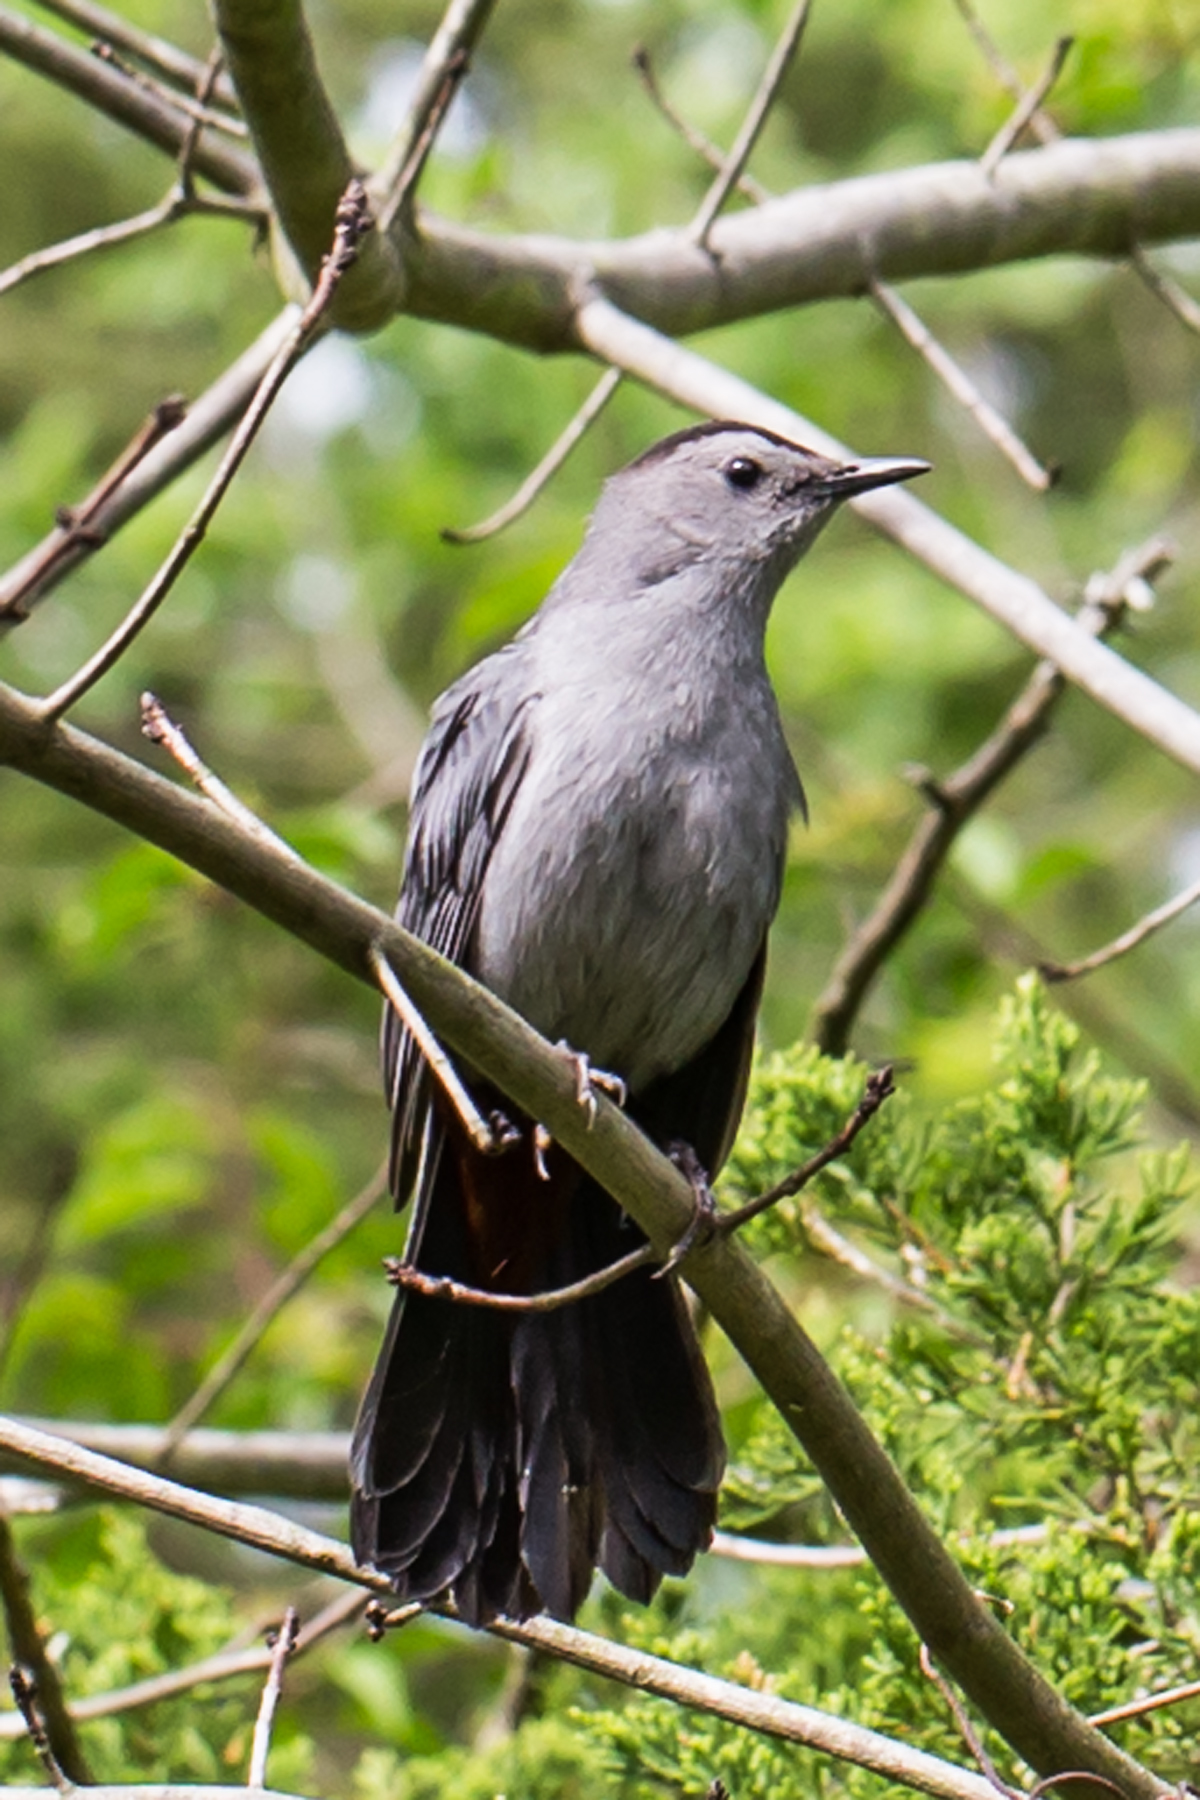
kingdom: Animalia
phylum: Chordata
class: Aves
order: Passeriformes
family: Mimidae
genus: Dumetella
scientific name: Dumetella carolinensis
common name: Gray catbird
